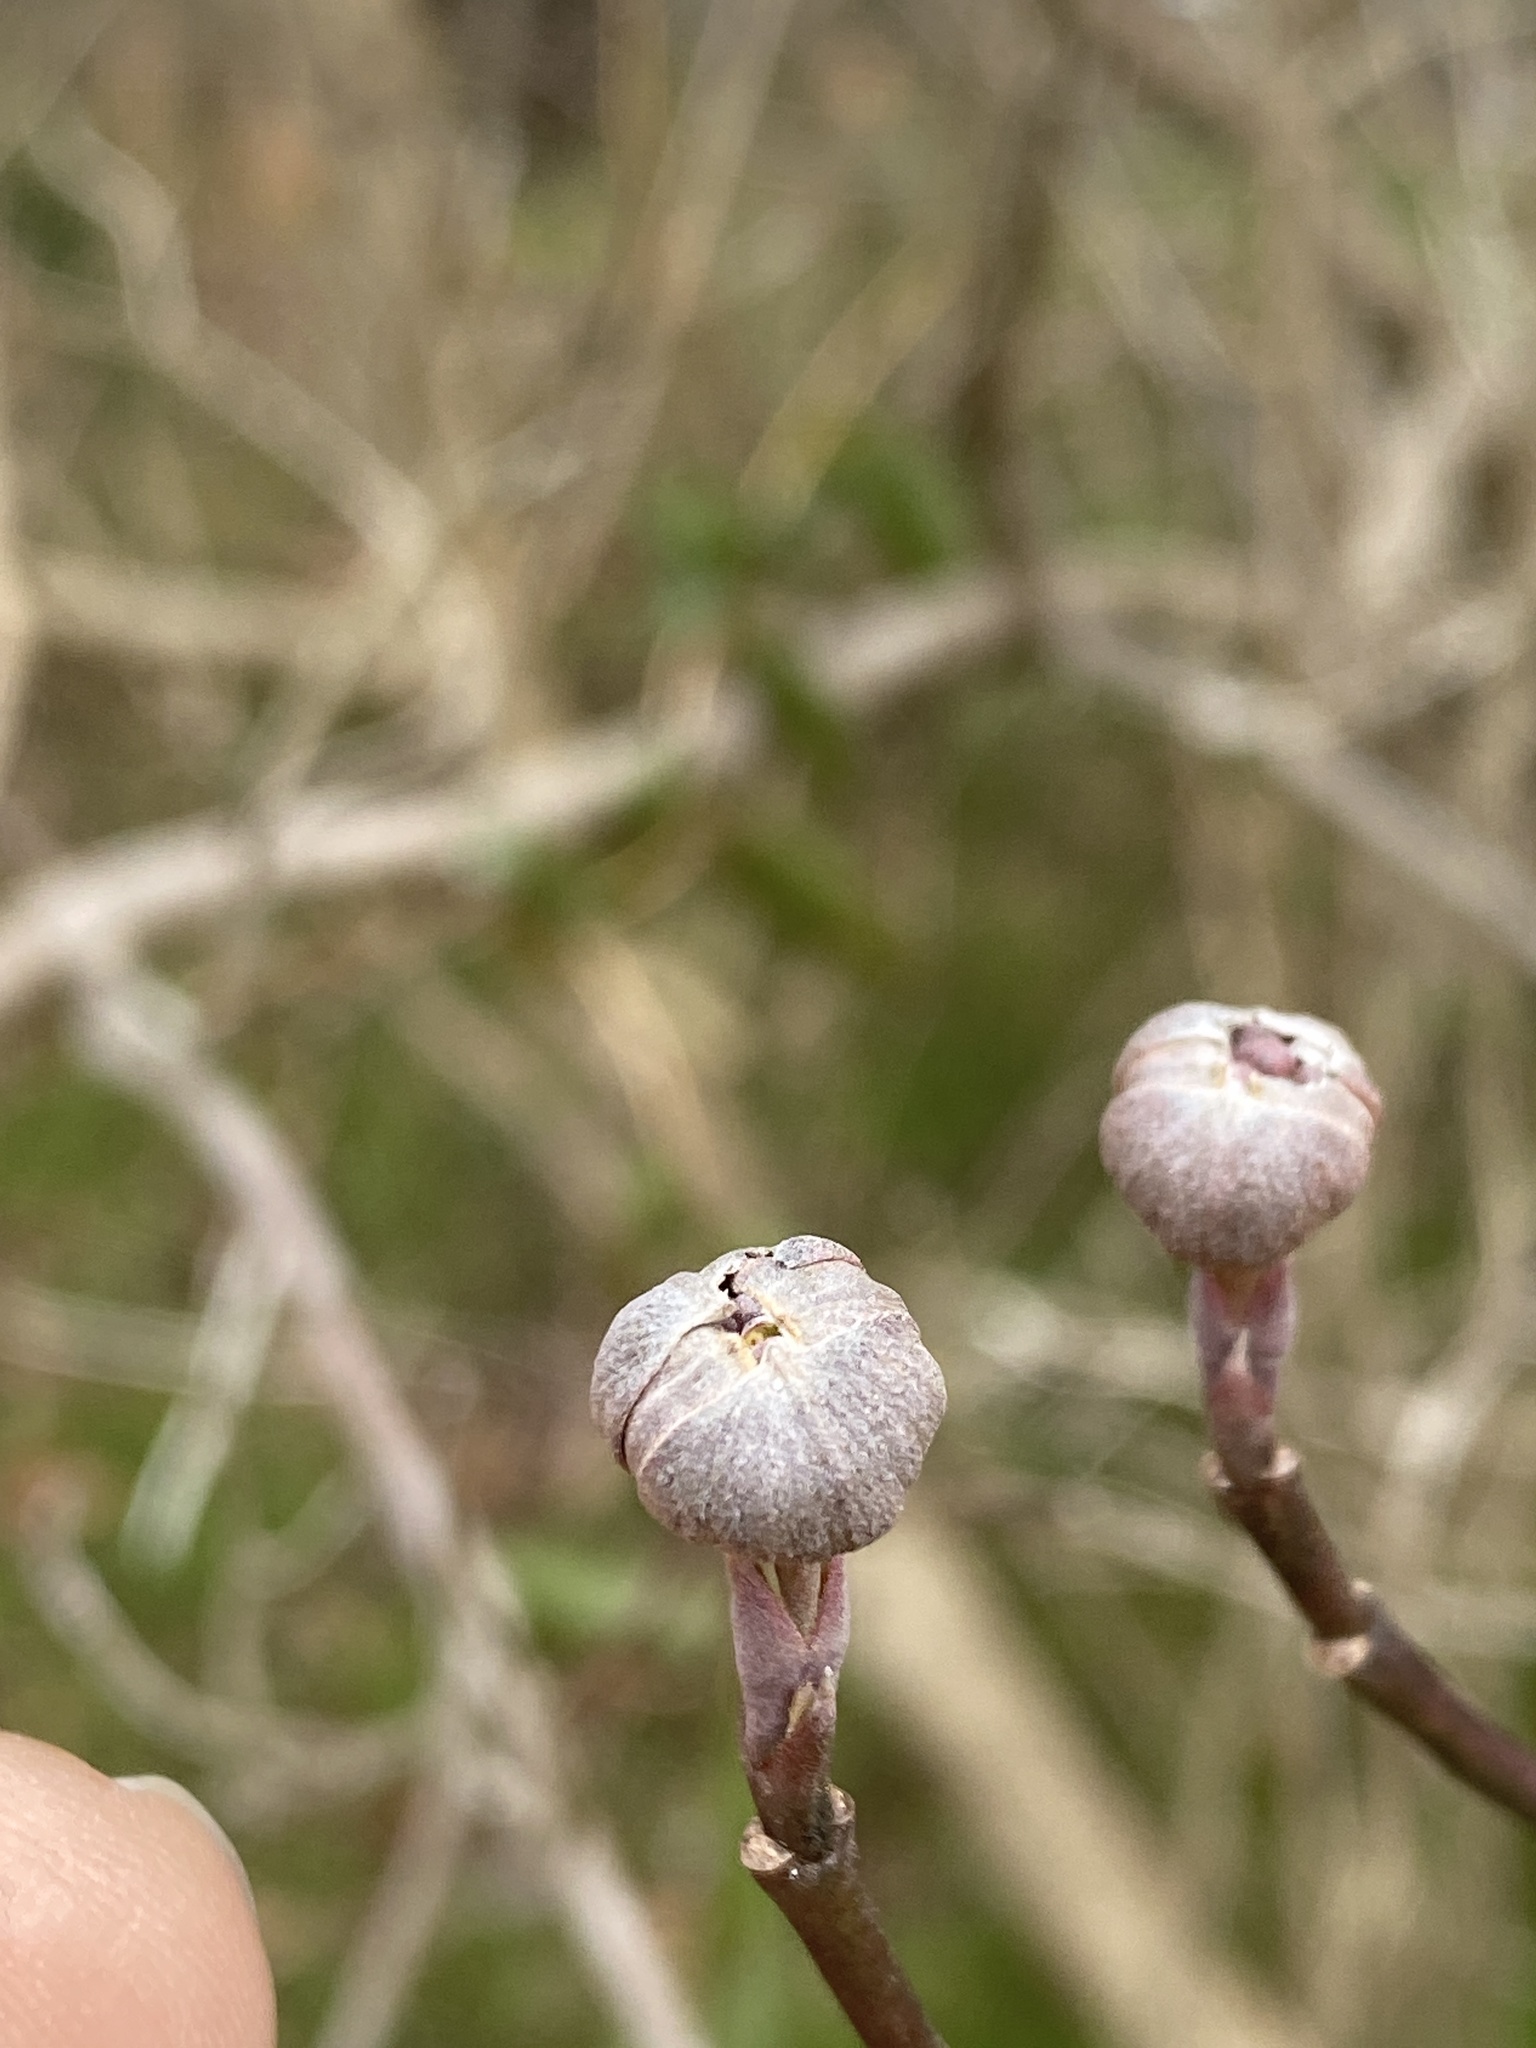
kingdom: Plantae
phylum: Tracheophyta
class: Magnoliopsida
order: Cornales
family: Cornaceae
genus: Cornus
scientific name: Cornus florida
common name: Flowering dogwood
